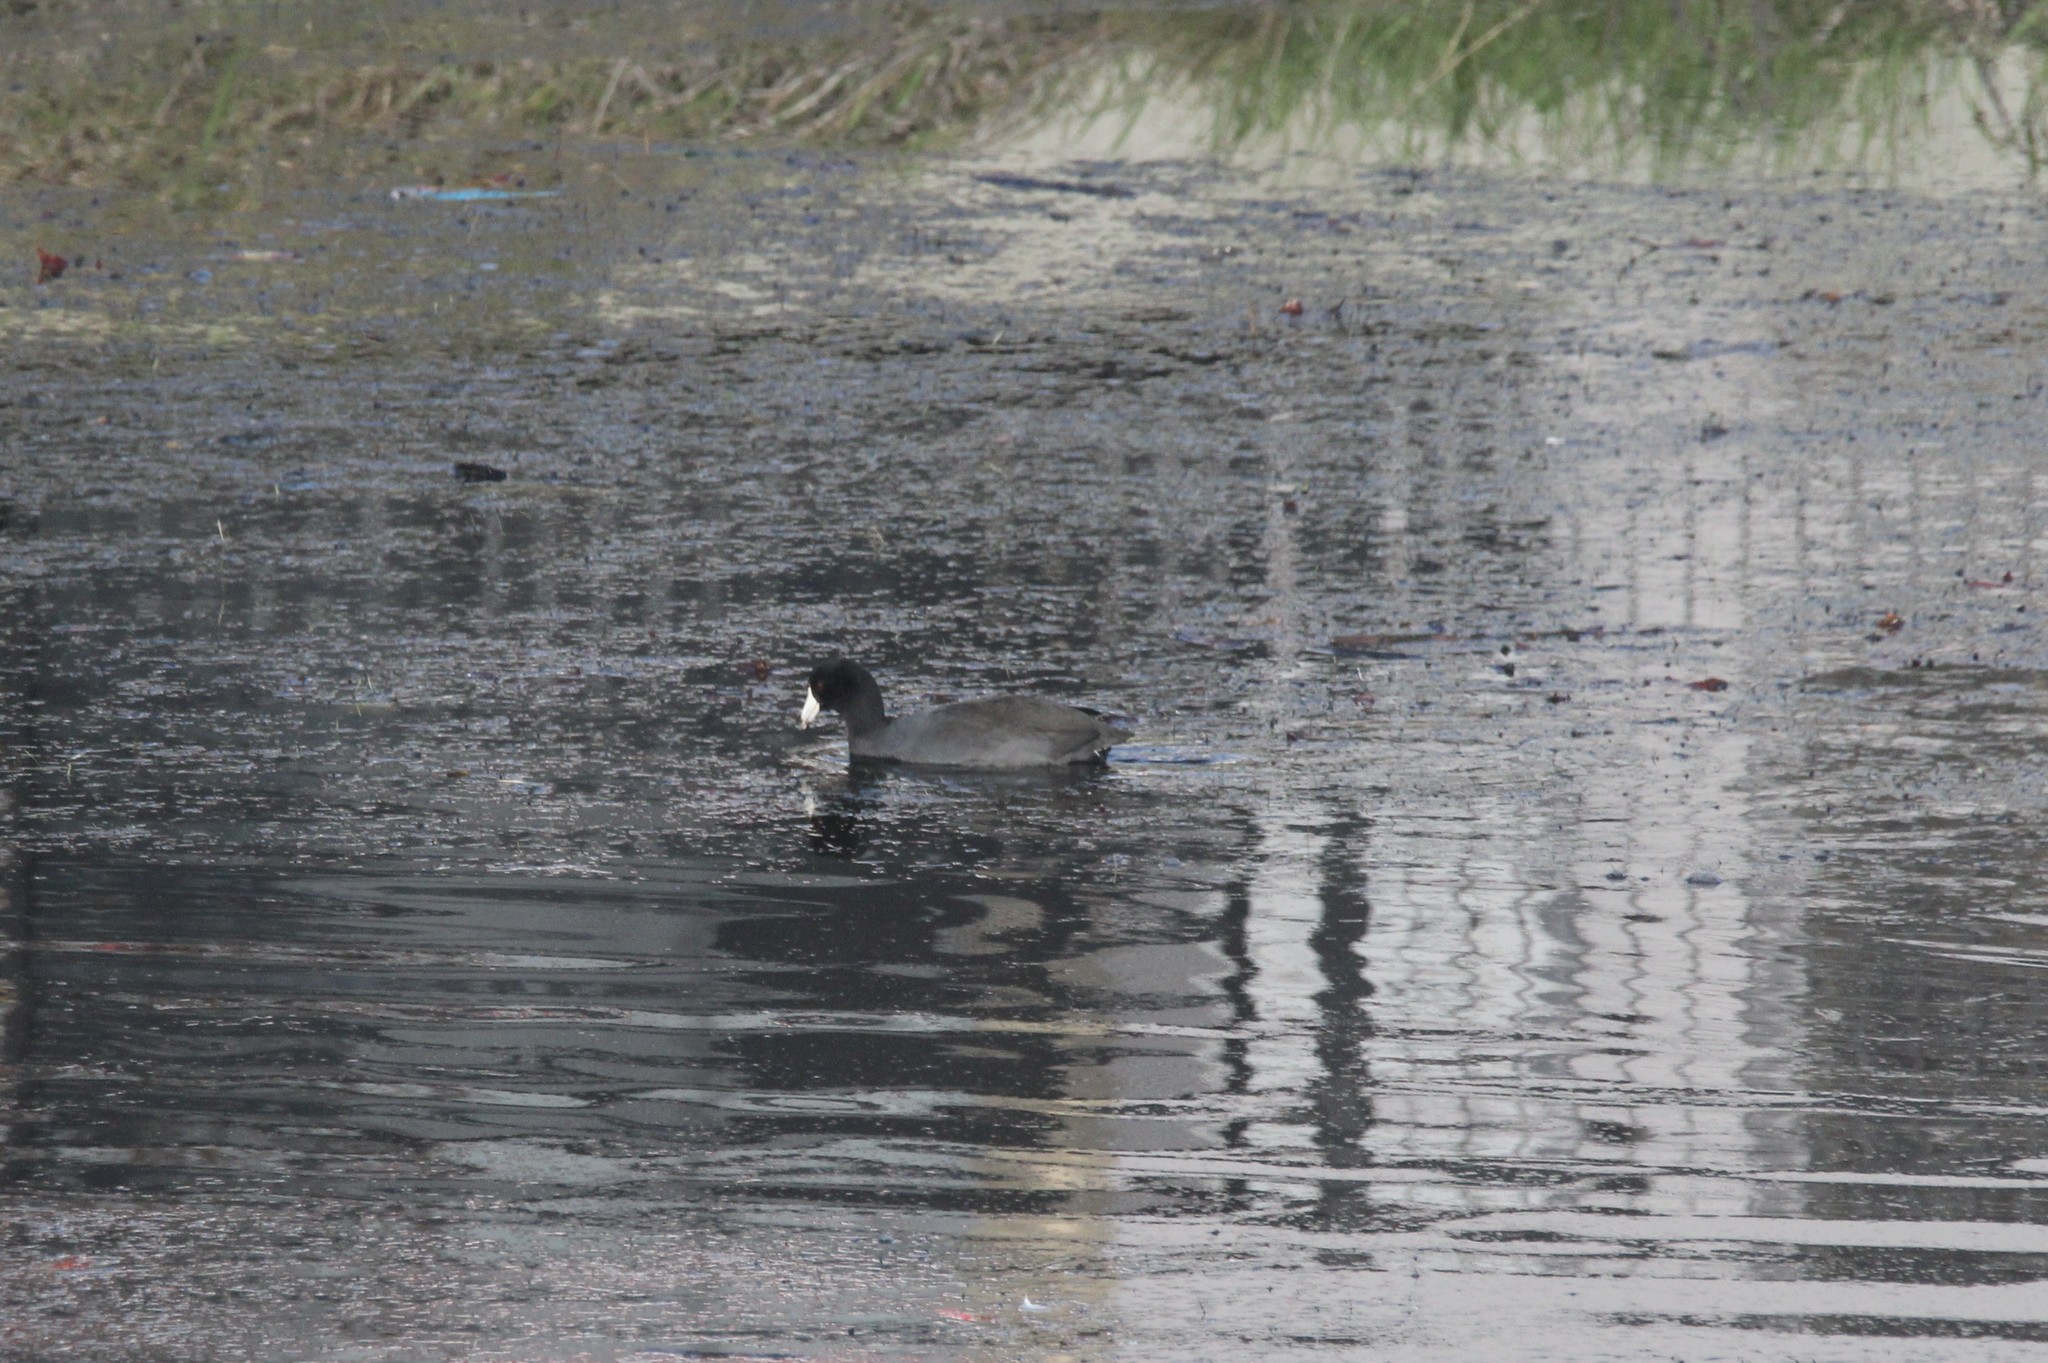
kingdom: Animalia
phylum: Chordata
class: Aves
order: Gruiformes
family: Rallidae
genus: Fulica
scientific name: Fulica americana
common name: American coot
